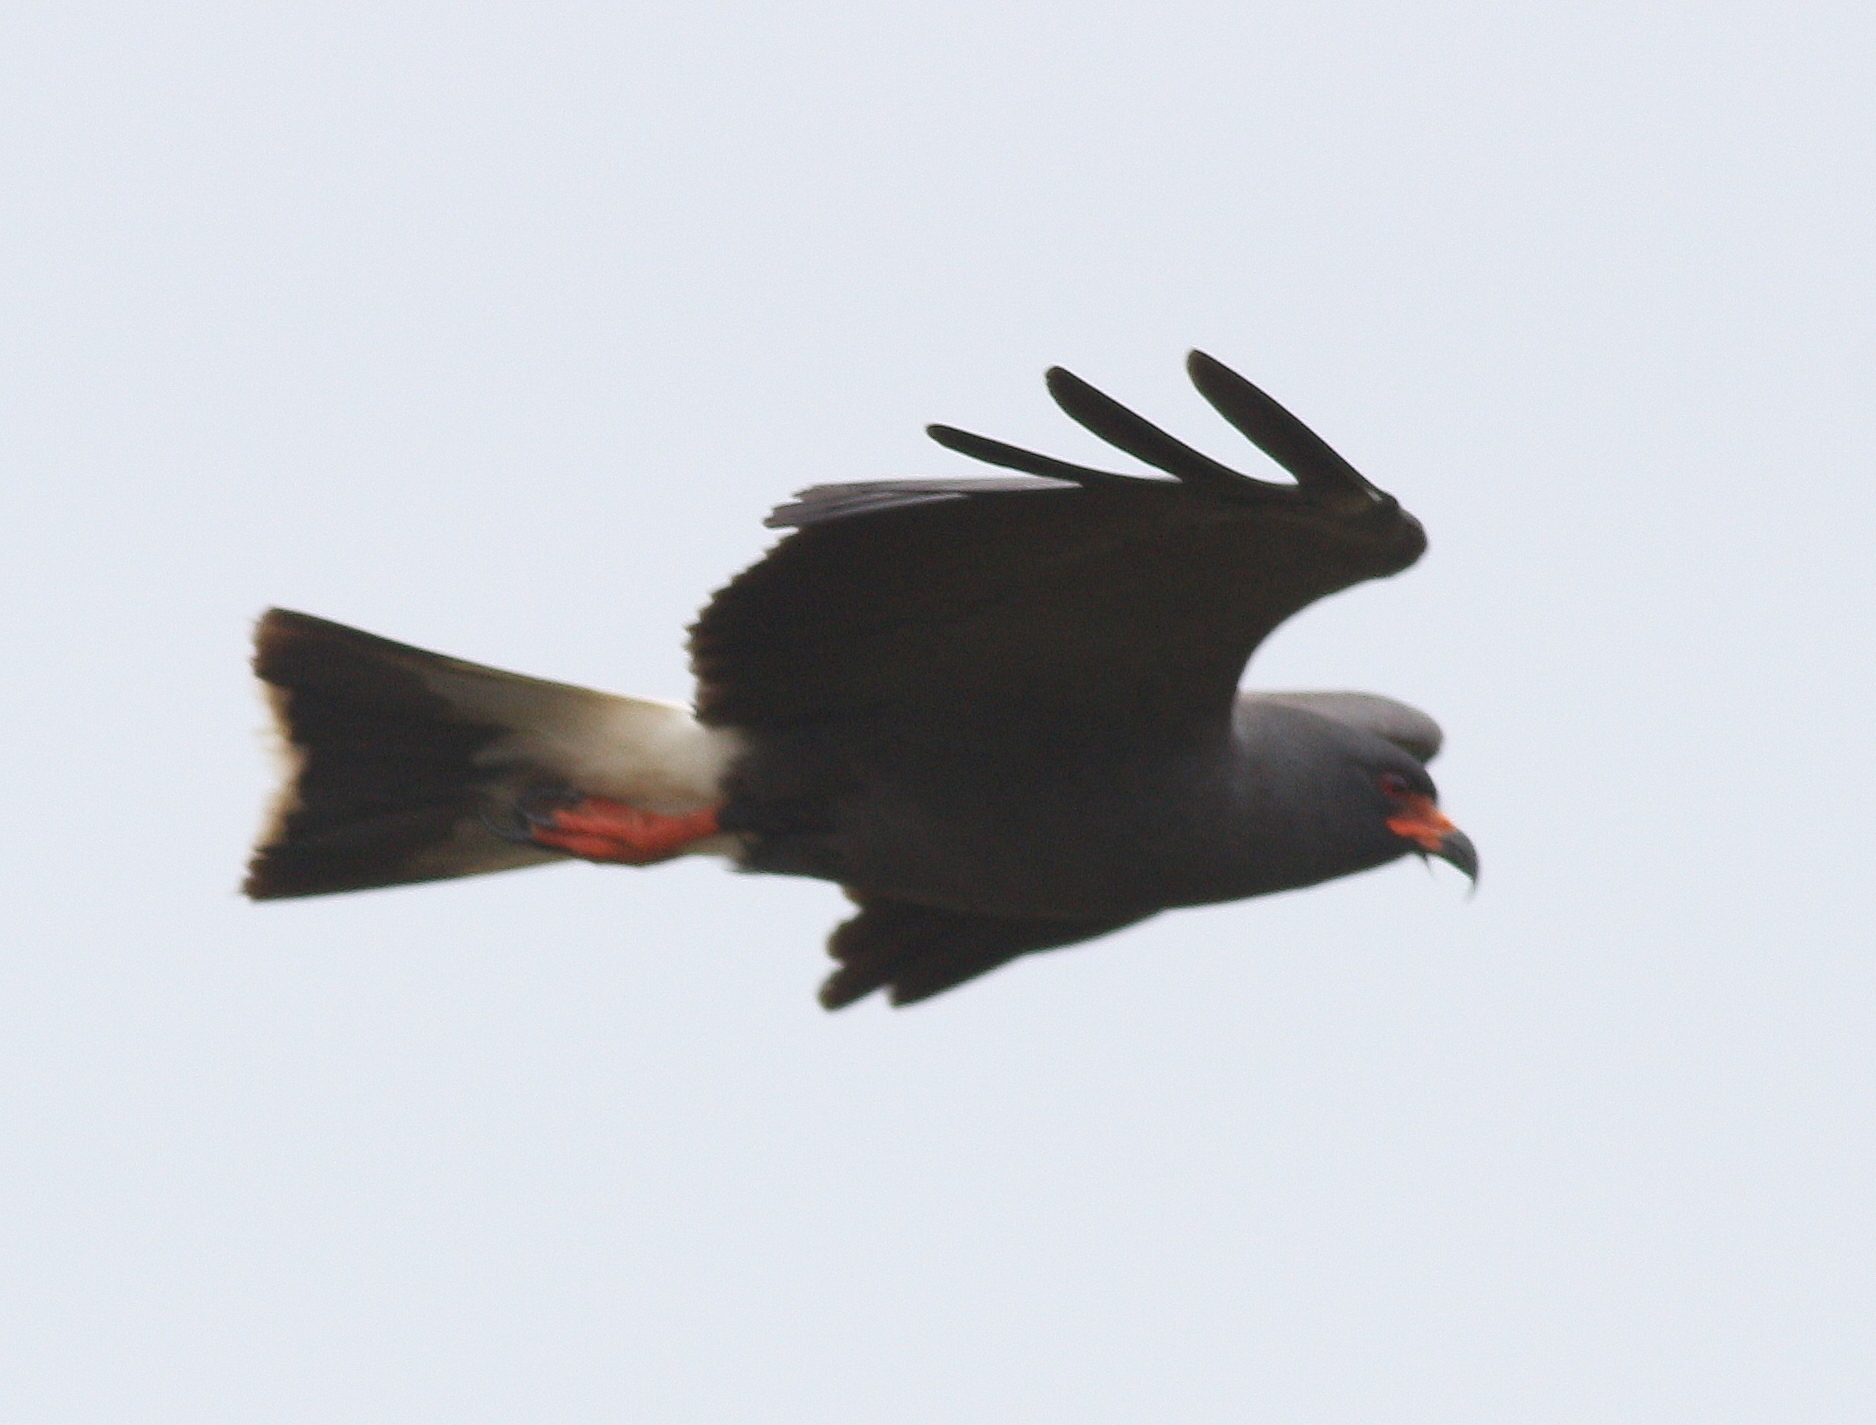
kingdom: Animalia
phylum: Chordata
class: Aves
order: Accipitriformes
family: Accipitridae
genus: Rostrhamus
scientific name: Rostrhamus sociabilis
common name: Snail kite
